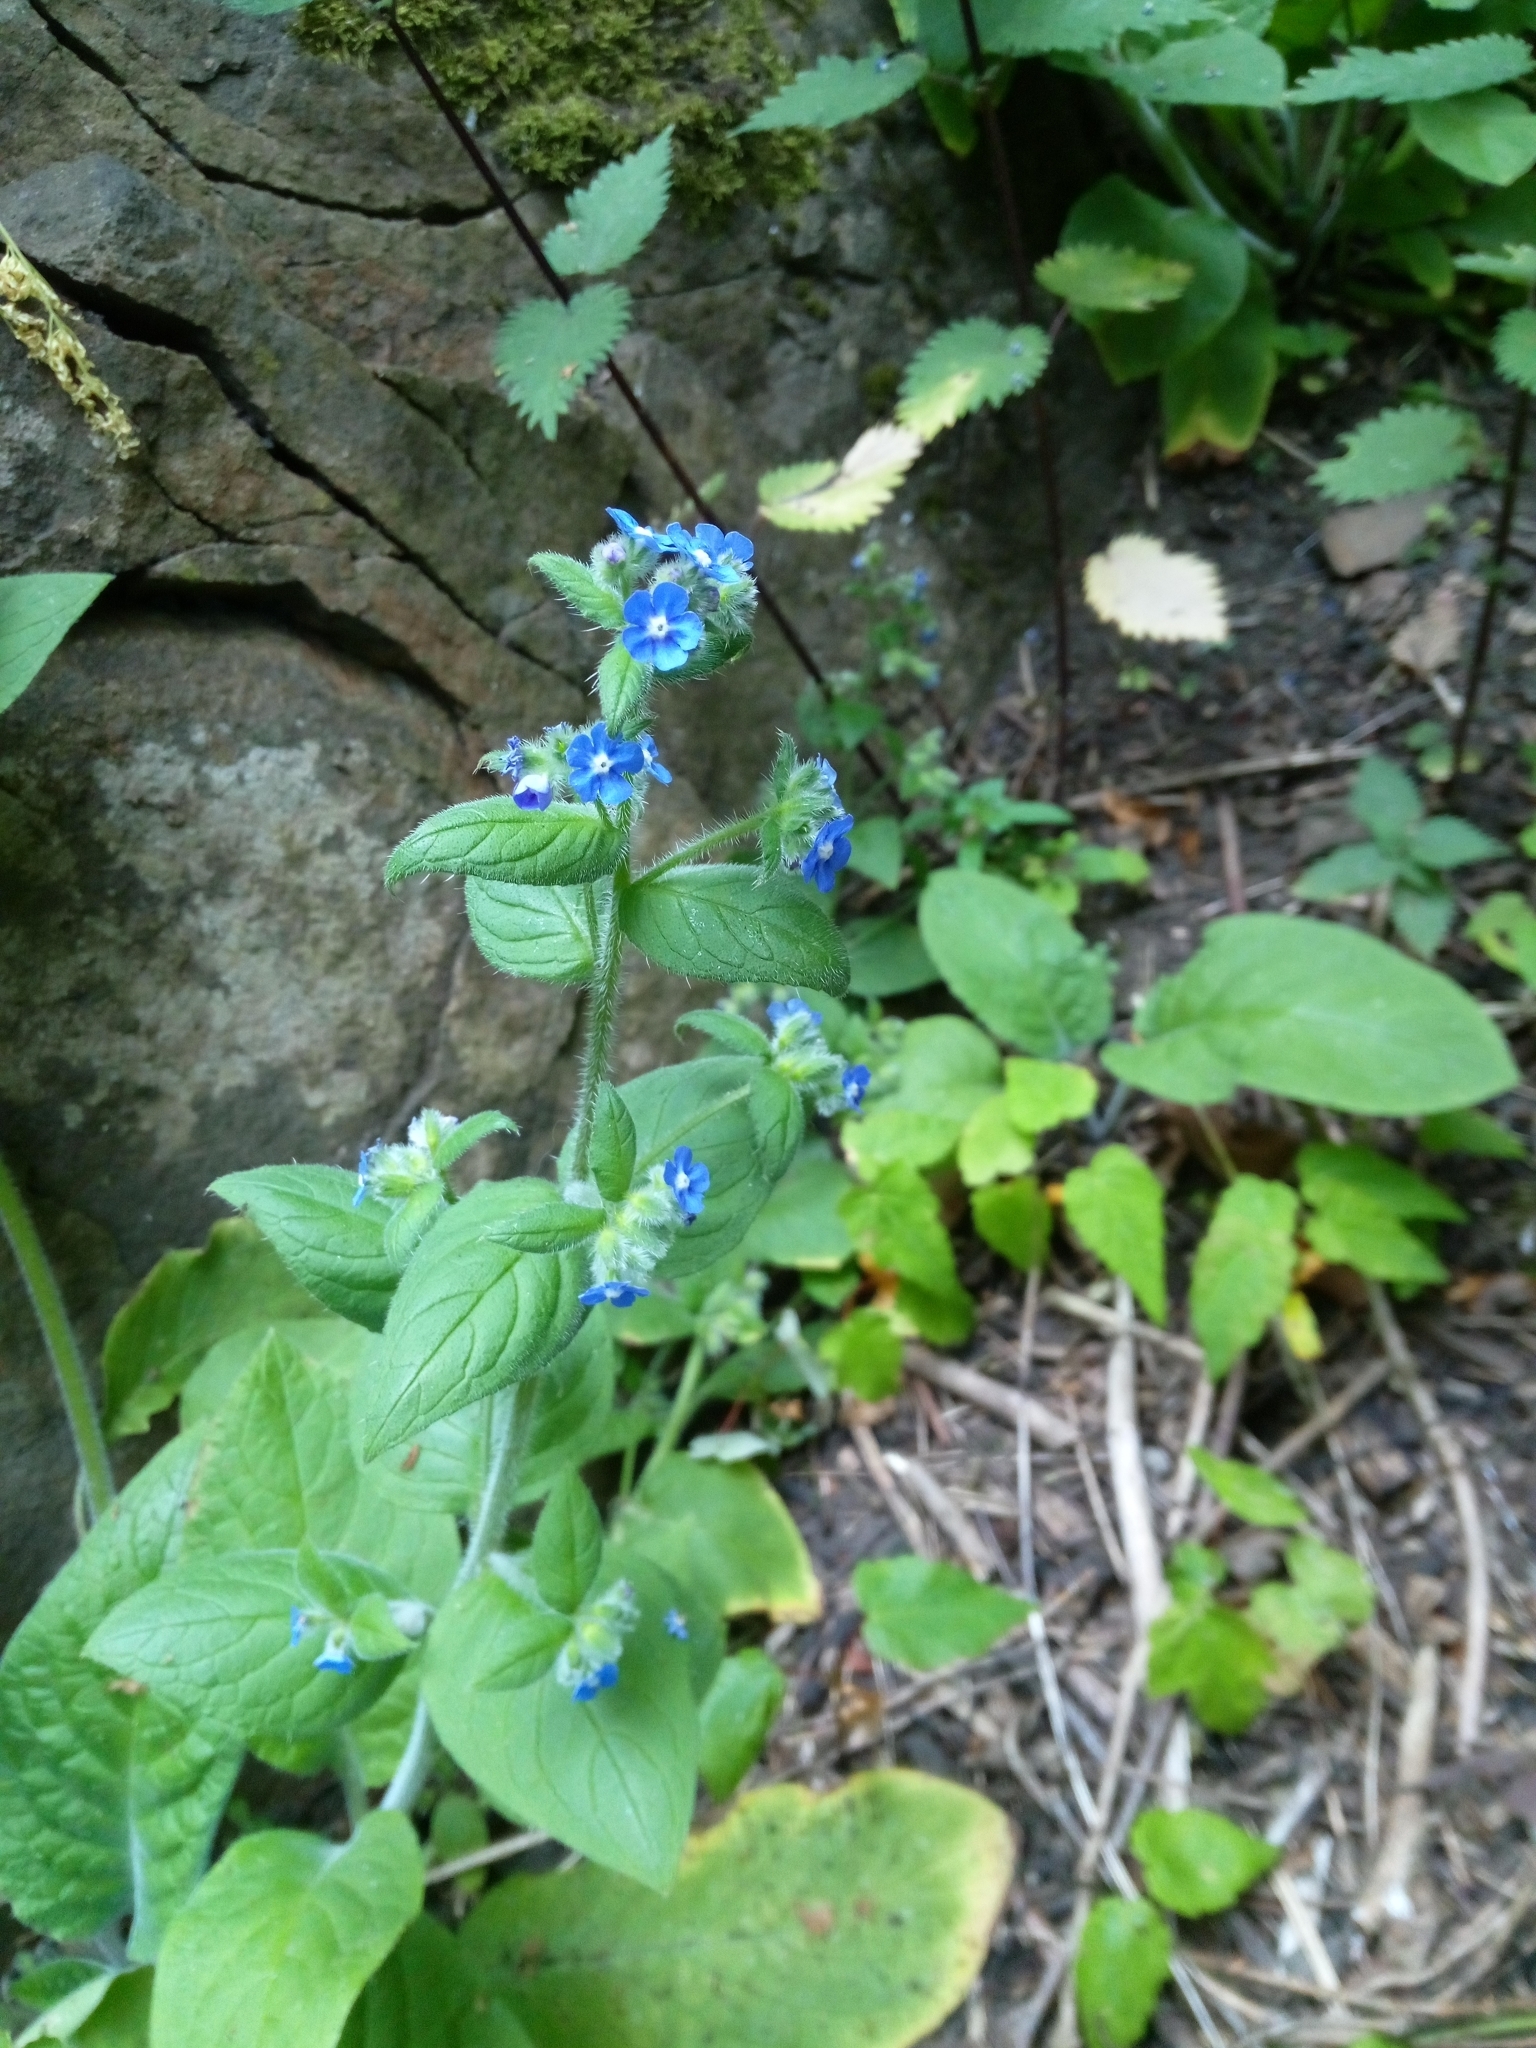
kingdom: Plantae
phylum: Tracheophyta
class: Magnoliopsida
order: Boraginales
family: Boraginaceae
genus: Pentaglottis
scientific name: Pentaglottis sempervirens
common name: Green alkanet
